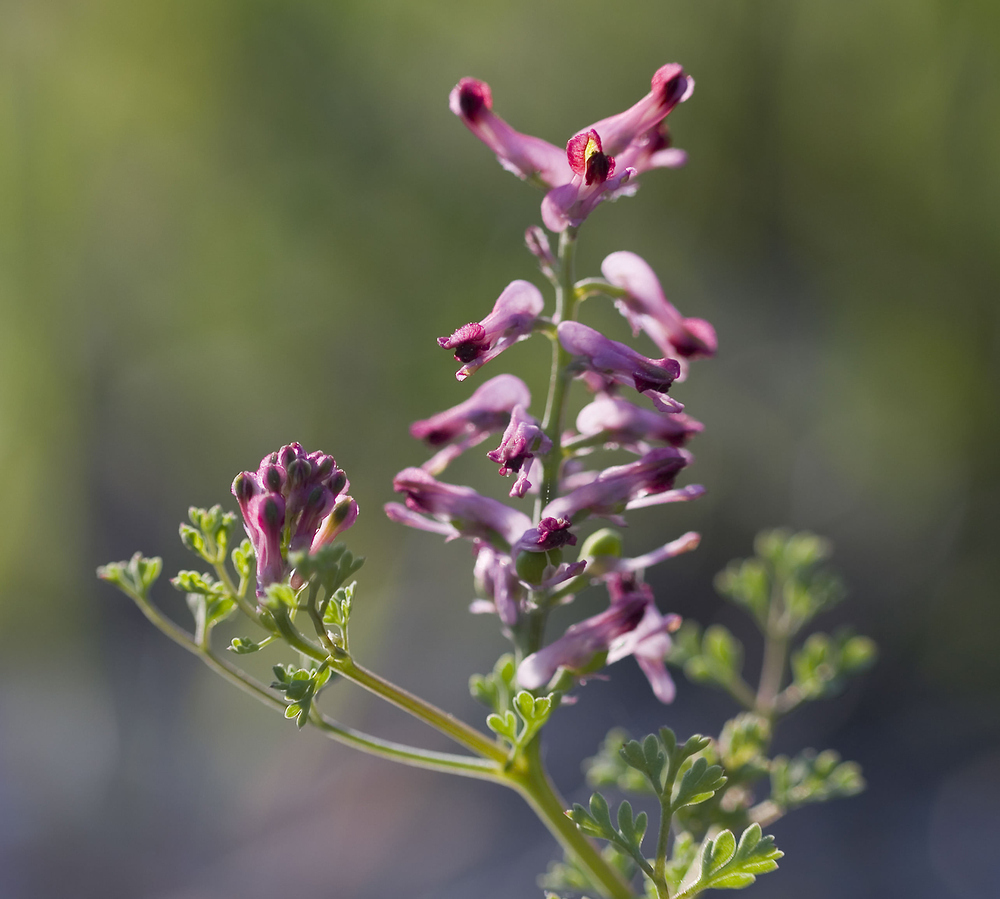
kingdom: Plantae
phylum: Tracheophyta
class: Magnoliopsida
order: Ranunculales
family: Papaveraceae
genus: Fumaria
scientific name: Fumaria officinalis
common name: Common fumitory
